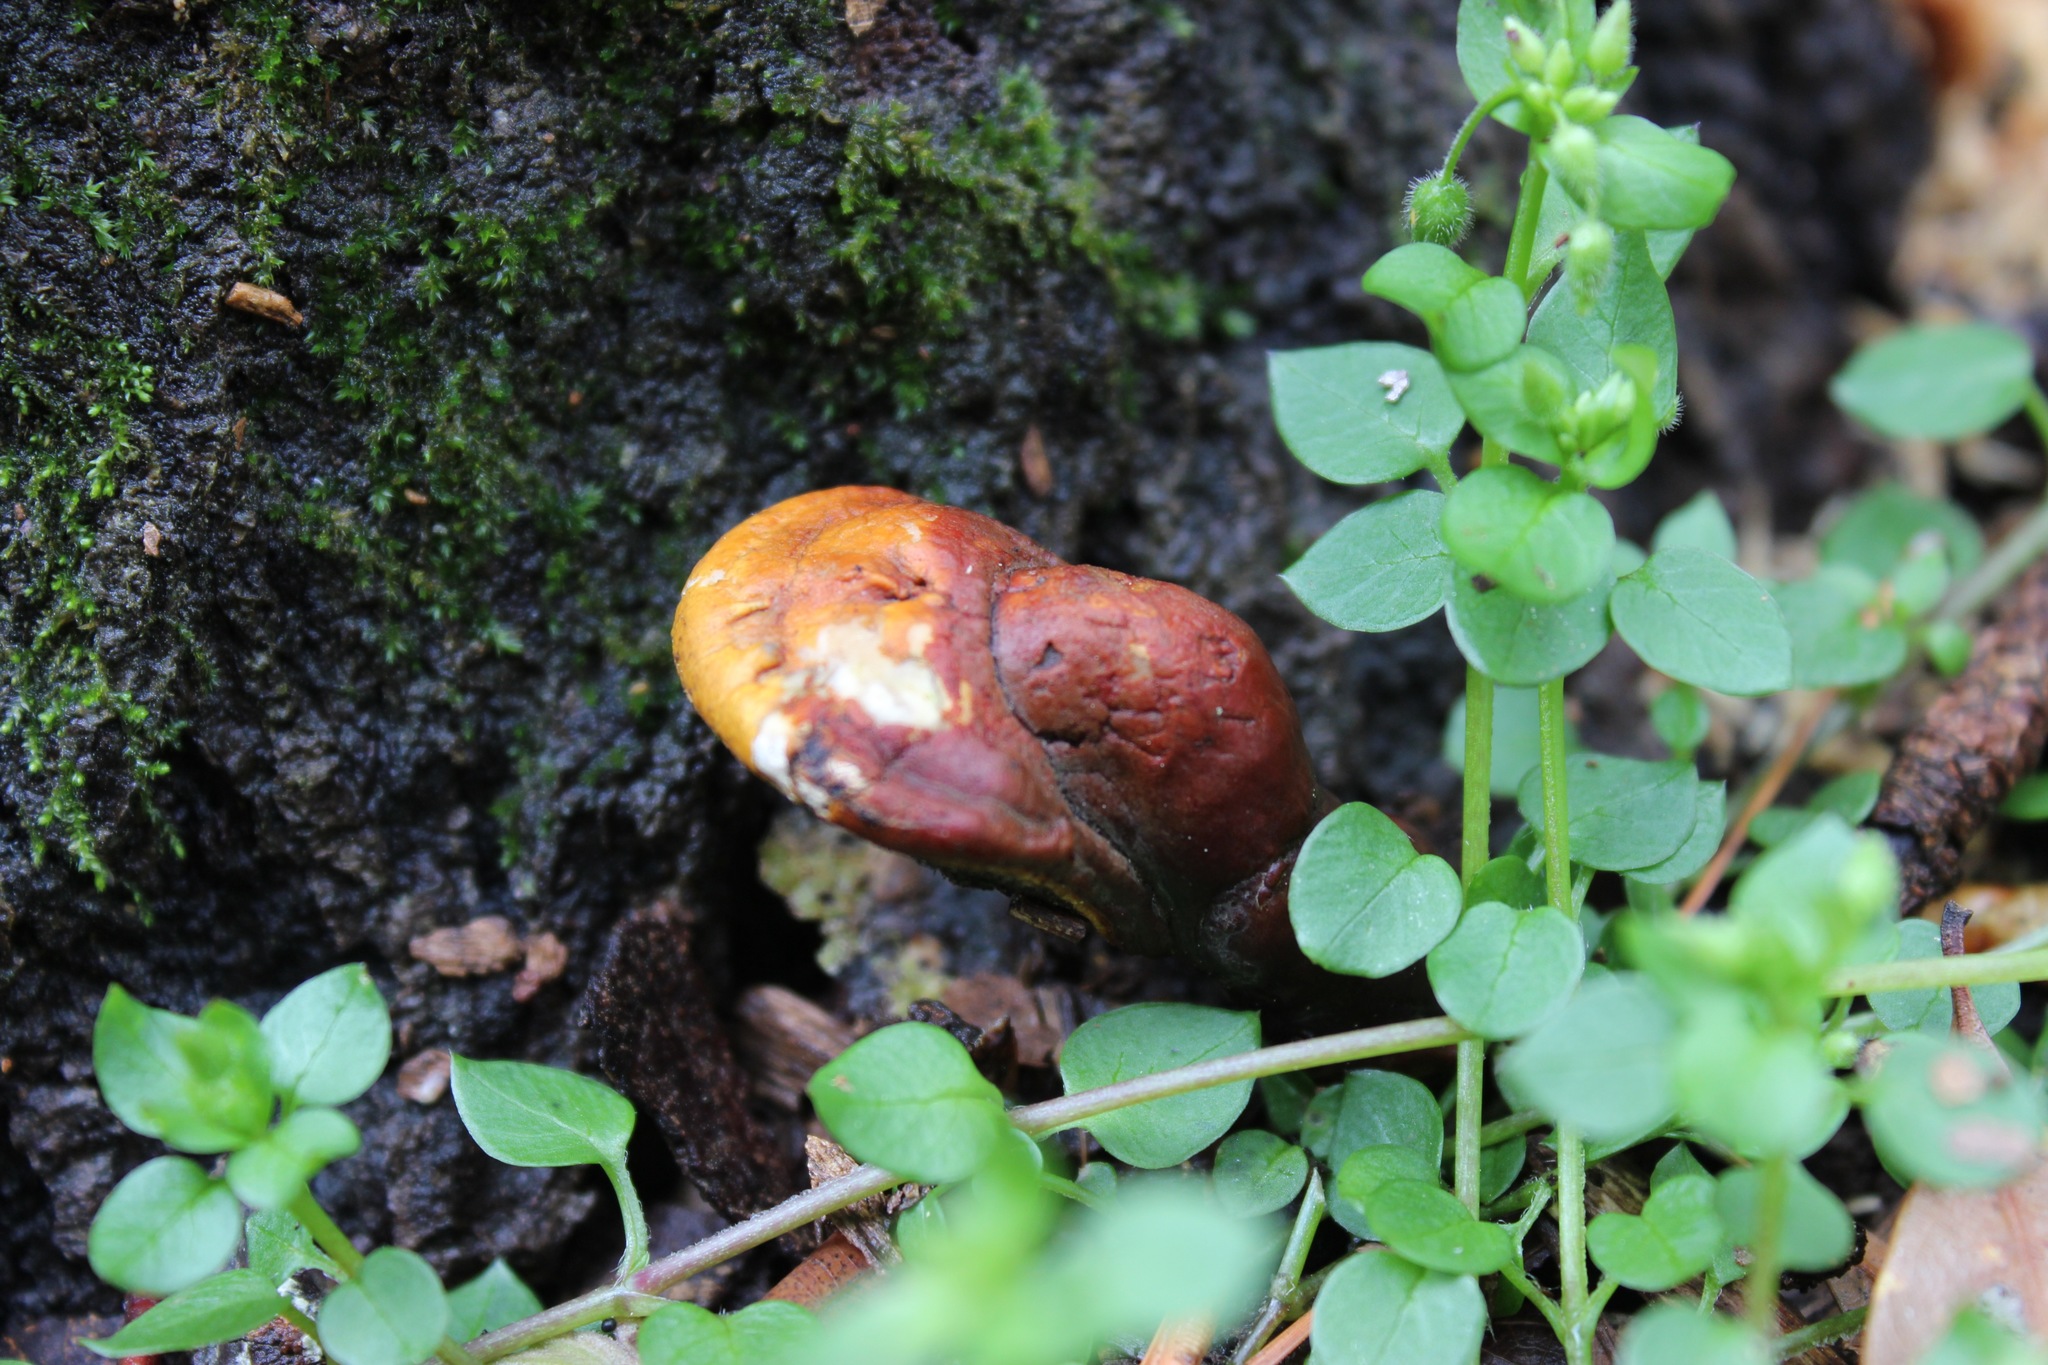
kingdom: Fungi
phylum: Basidiomycota
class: Agaricomycetes
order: Polyporales
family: Polyporaceae
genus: Ganoderma
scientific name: Ganoderma curtisii
